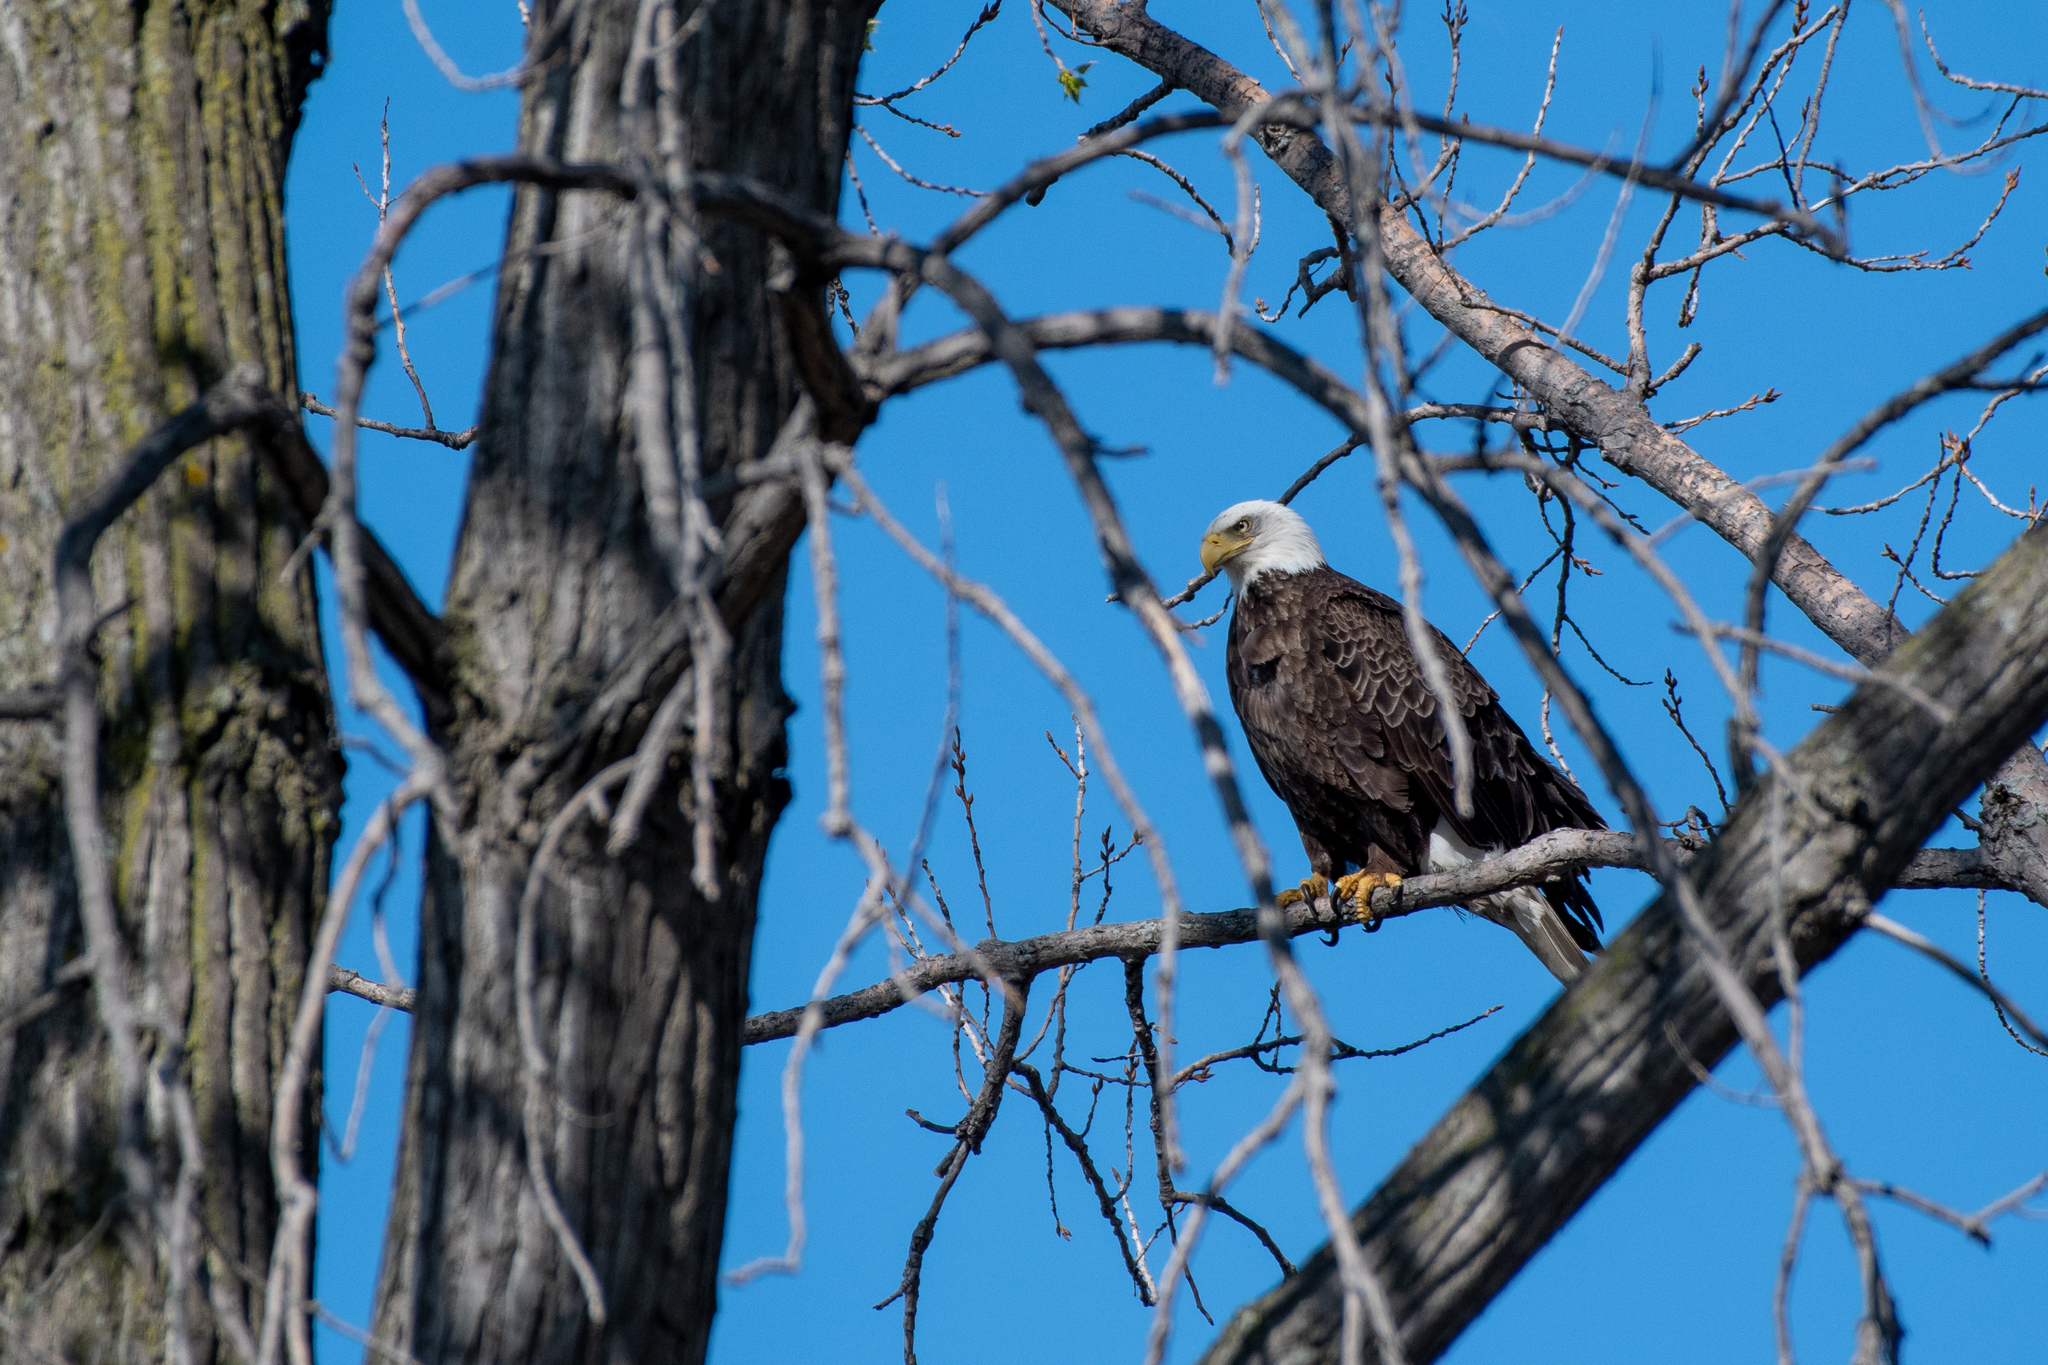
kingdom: Animalia
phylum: Chordata
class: Aves
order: Accipitriformes
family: Accipitridae
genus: Haliaeetus
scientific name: Haliaeetus leucocephalus
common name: Bald eagle
